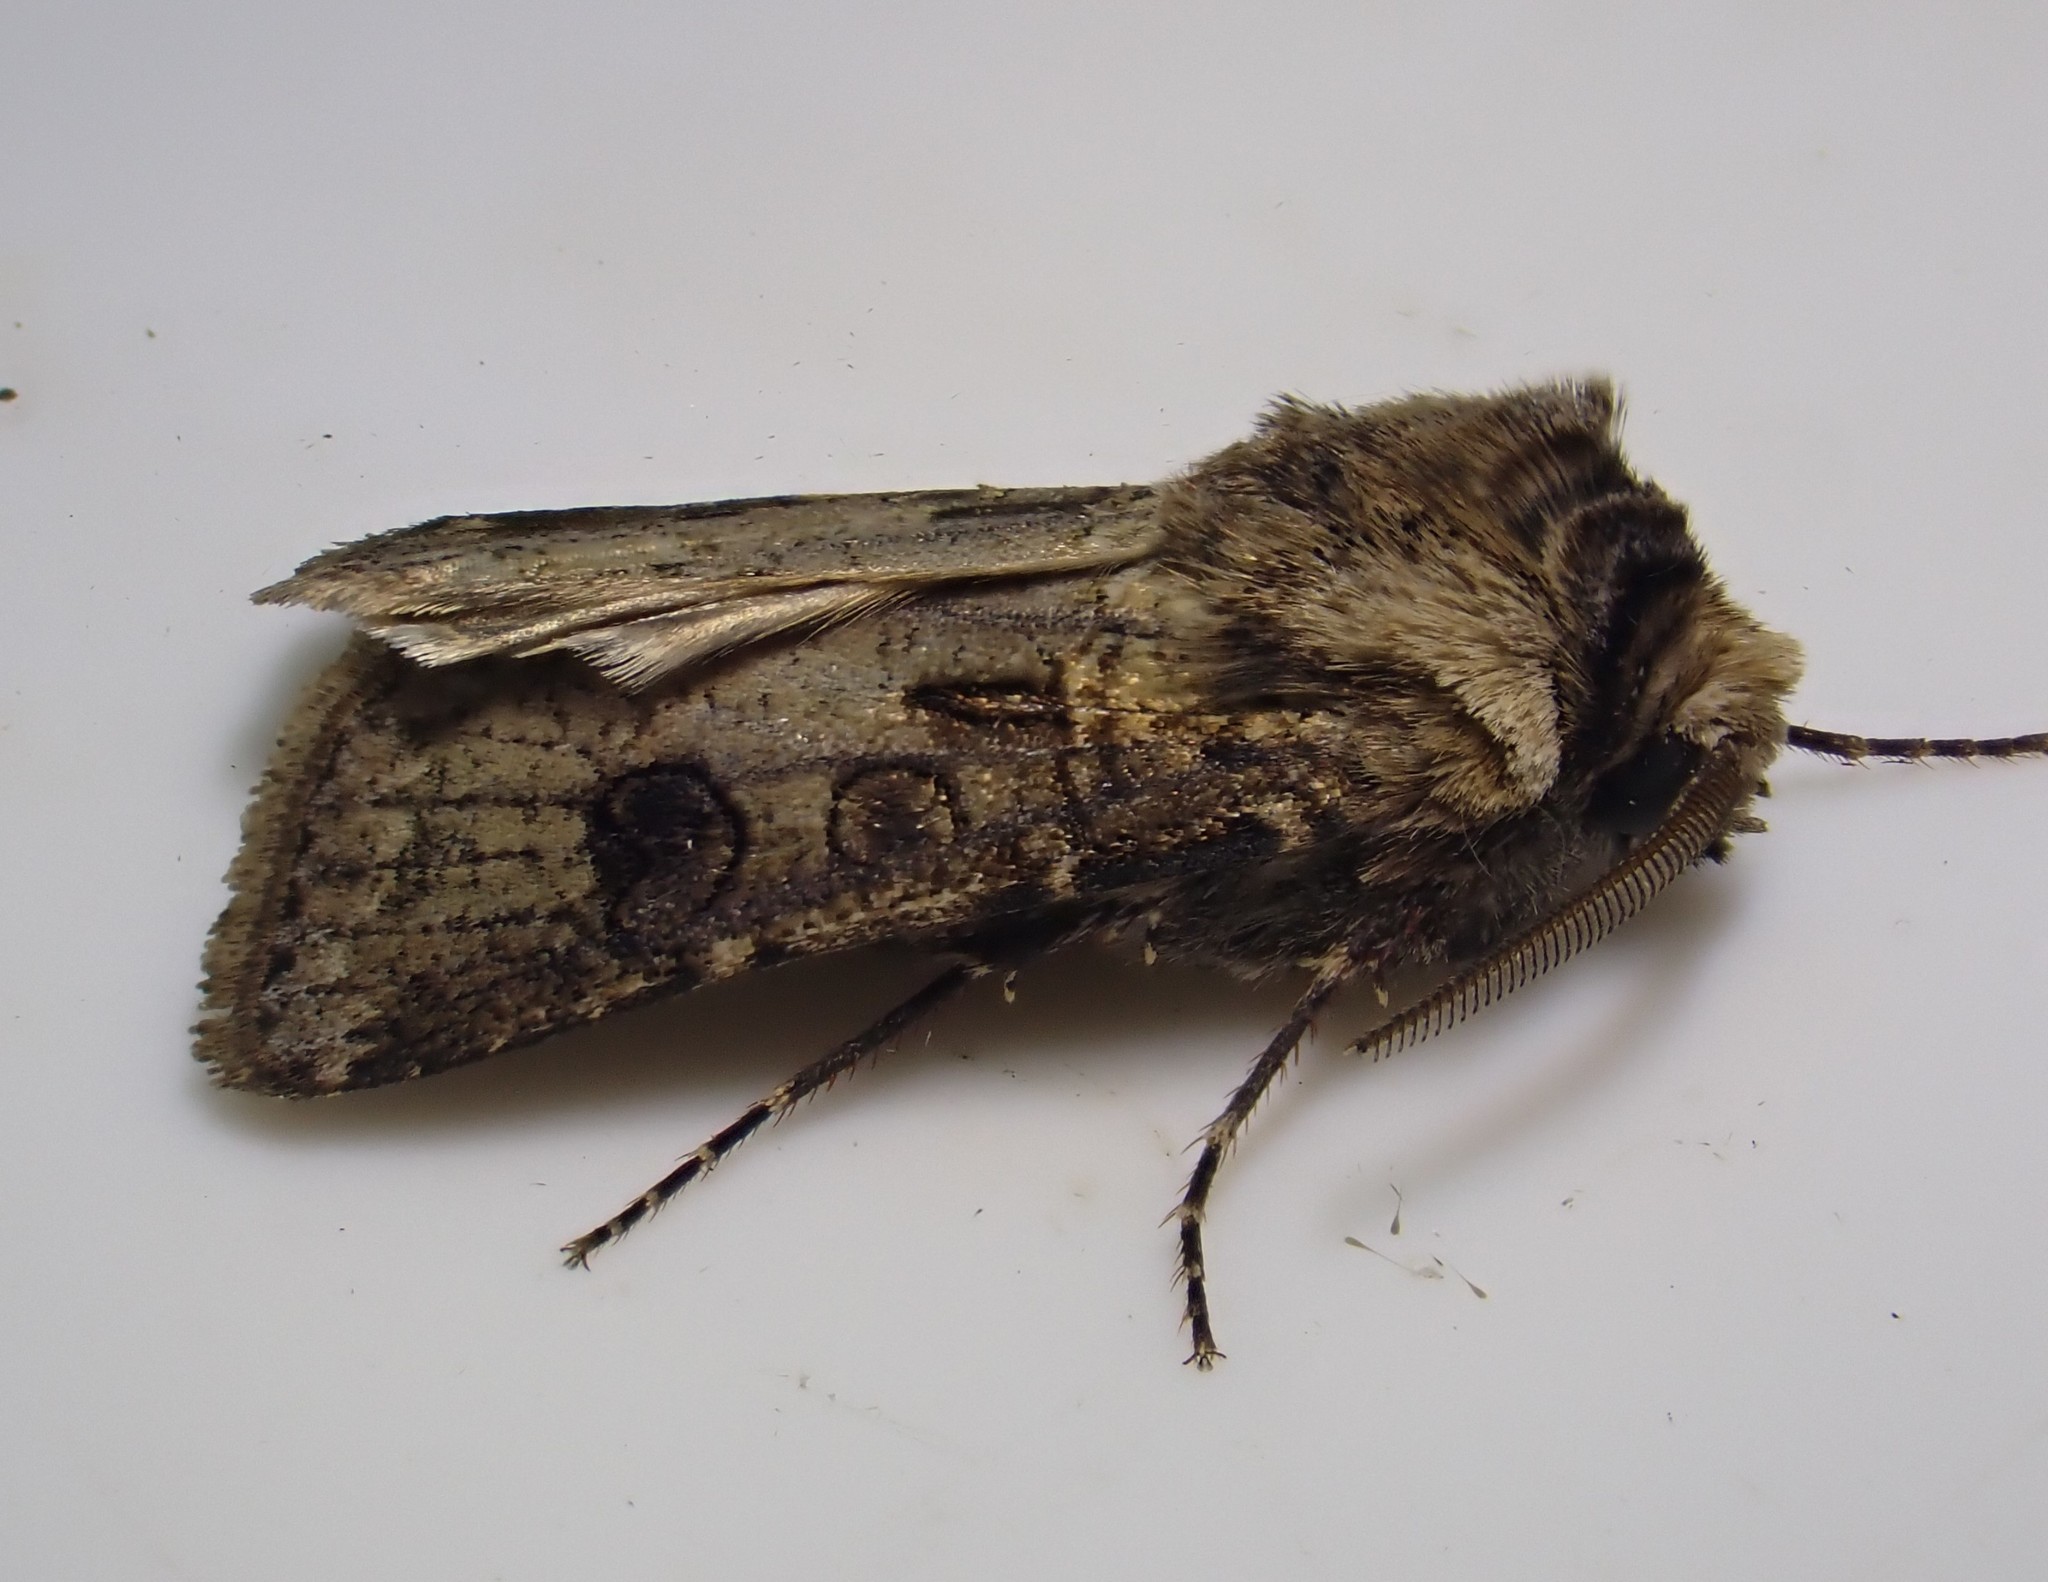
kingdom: Animalia
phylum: Arthropoda
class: Insecta
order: Lepidoptera
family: Noctuidae
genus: Agrotis
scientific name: Agrotis clavis
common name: Heart and club
